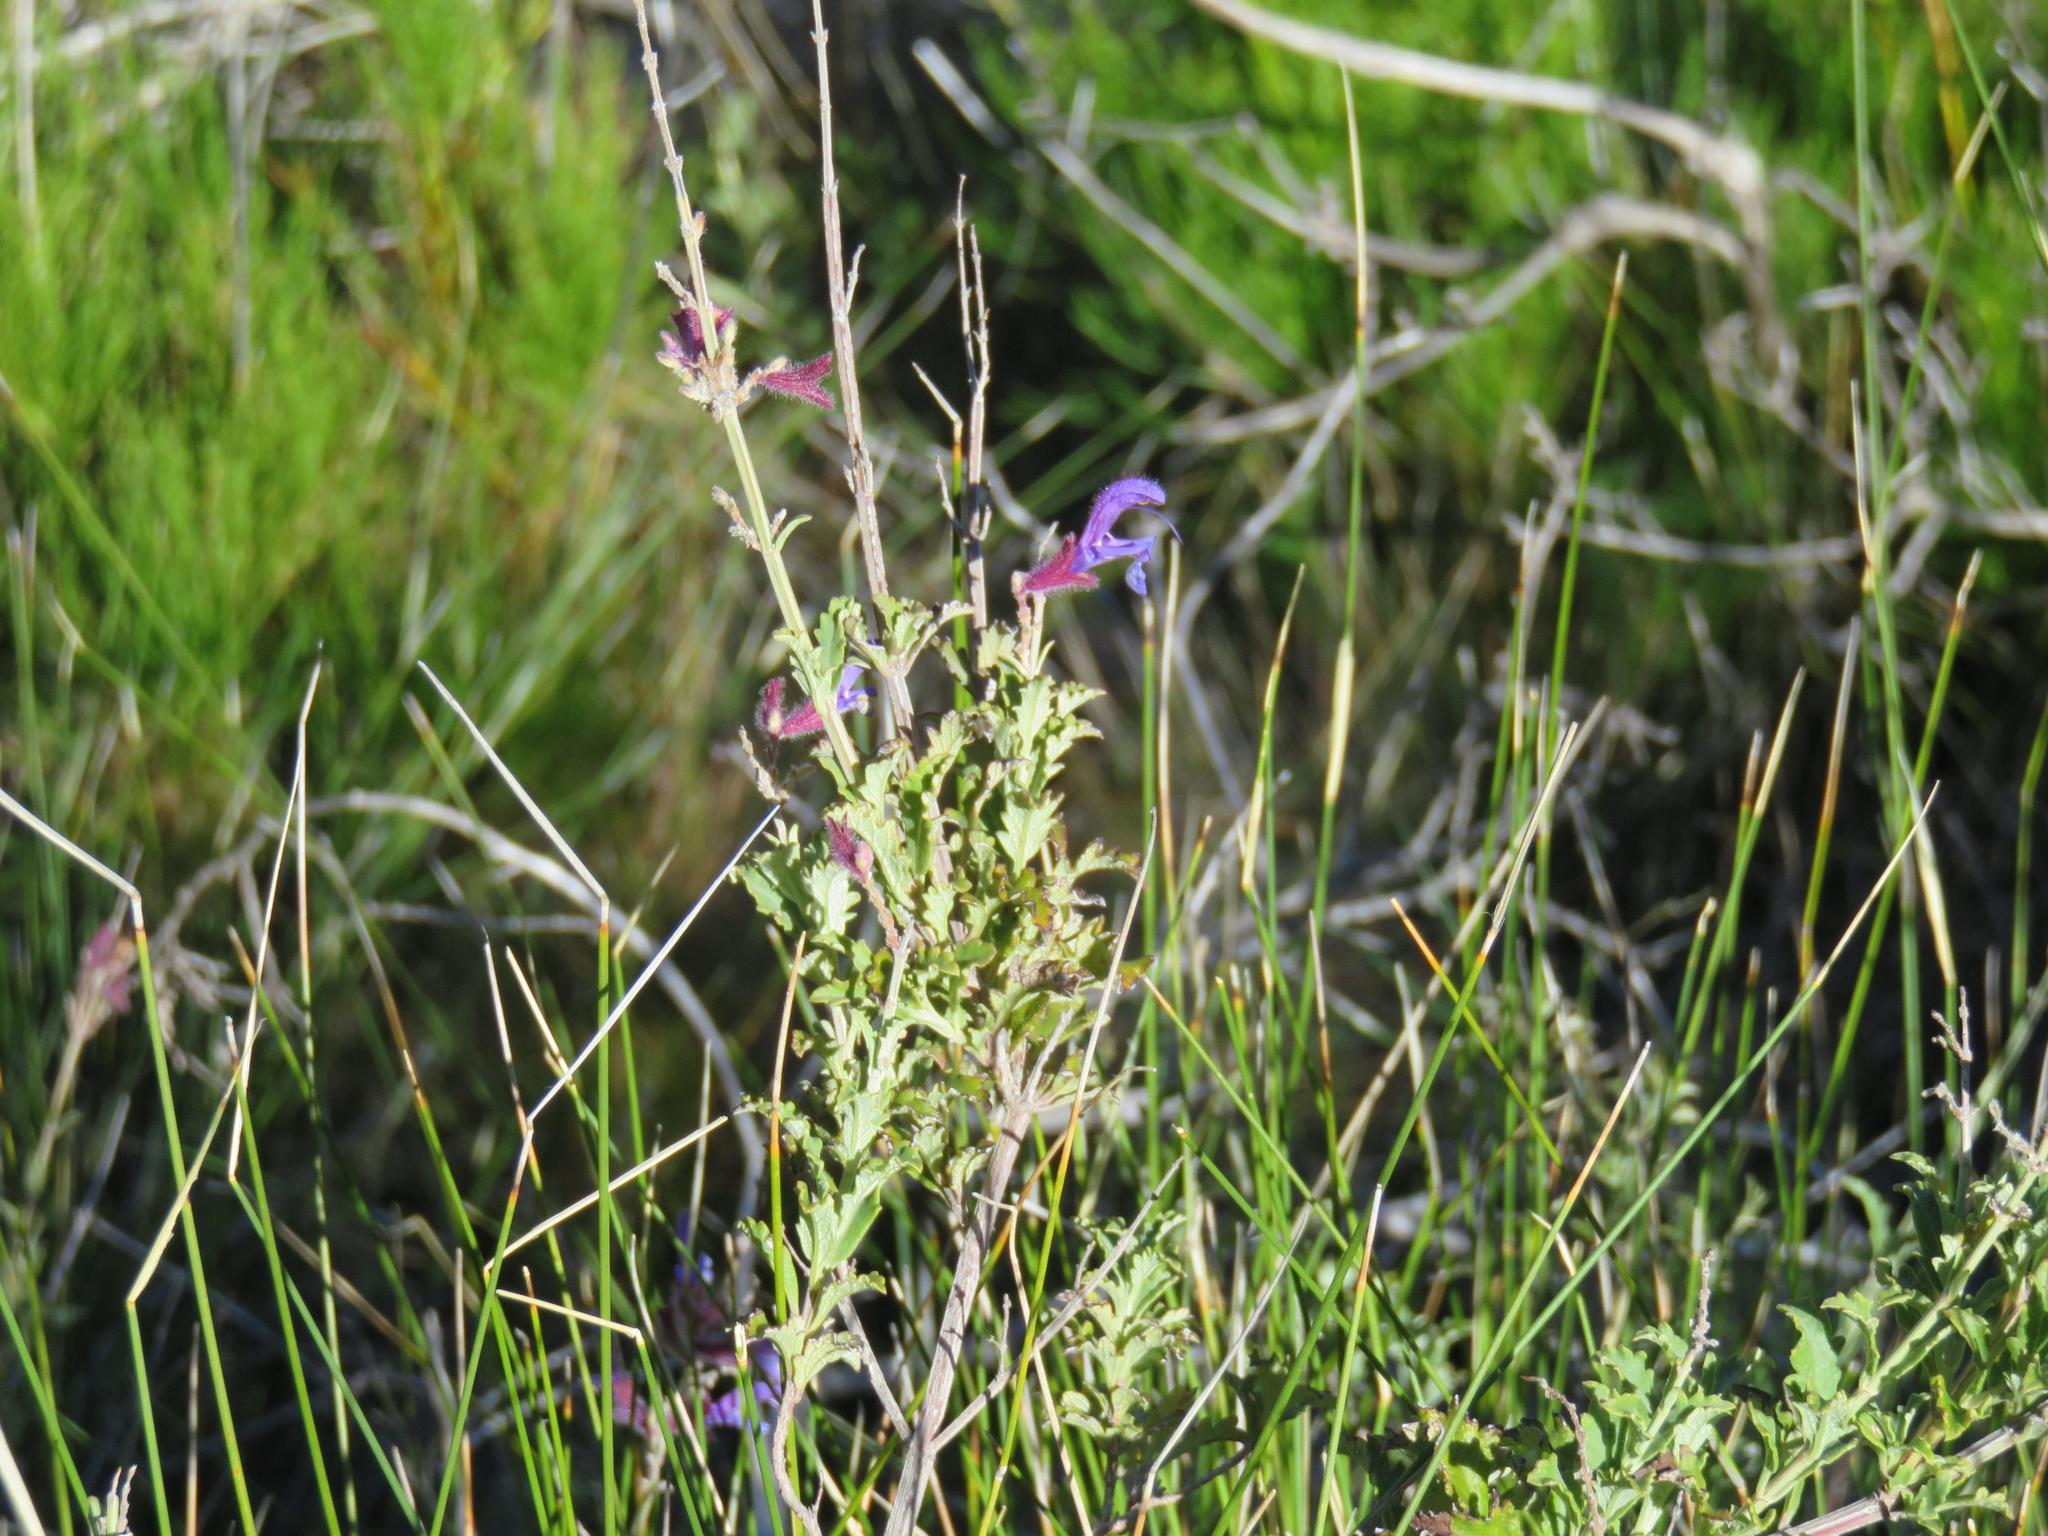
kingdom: Plantae
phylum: Tracheophyta
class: Magnoliopsida
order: Lamiales
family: Lamiaceae
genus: Salvia
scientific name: Salvia albicaulis
